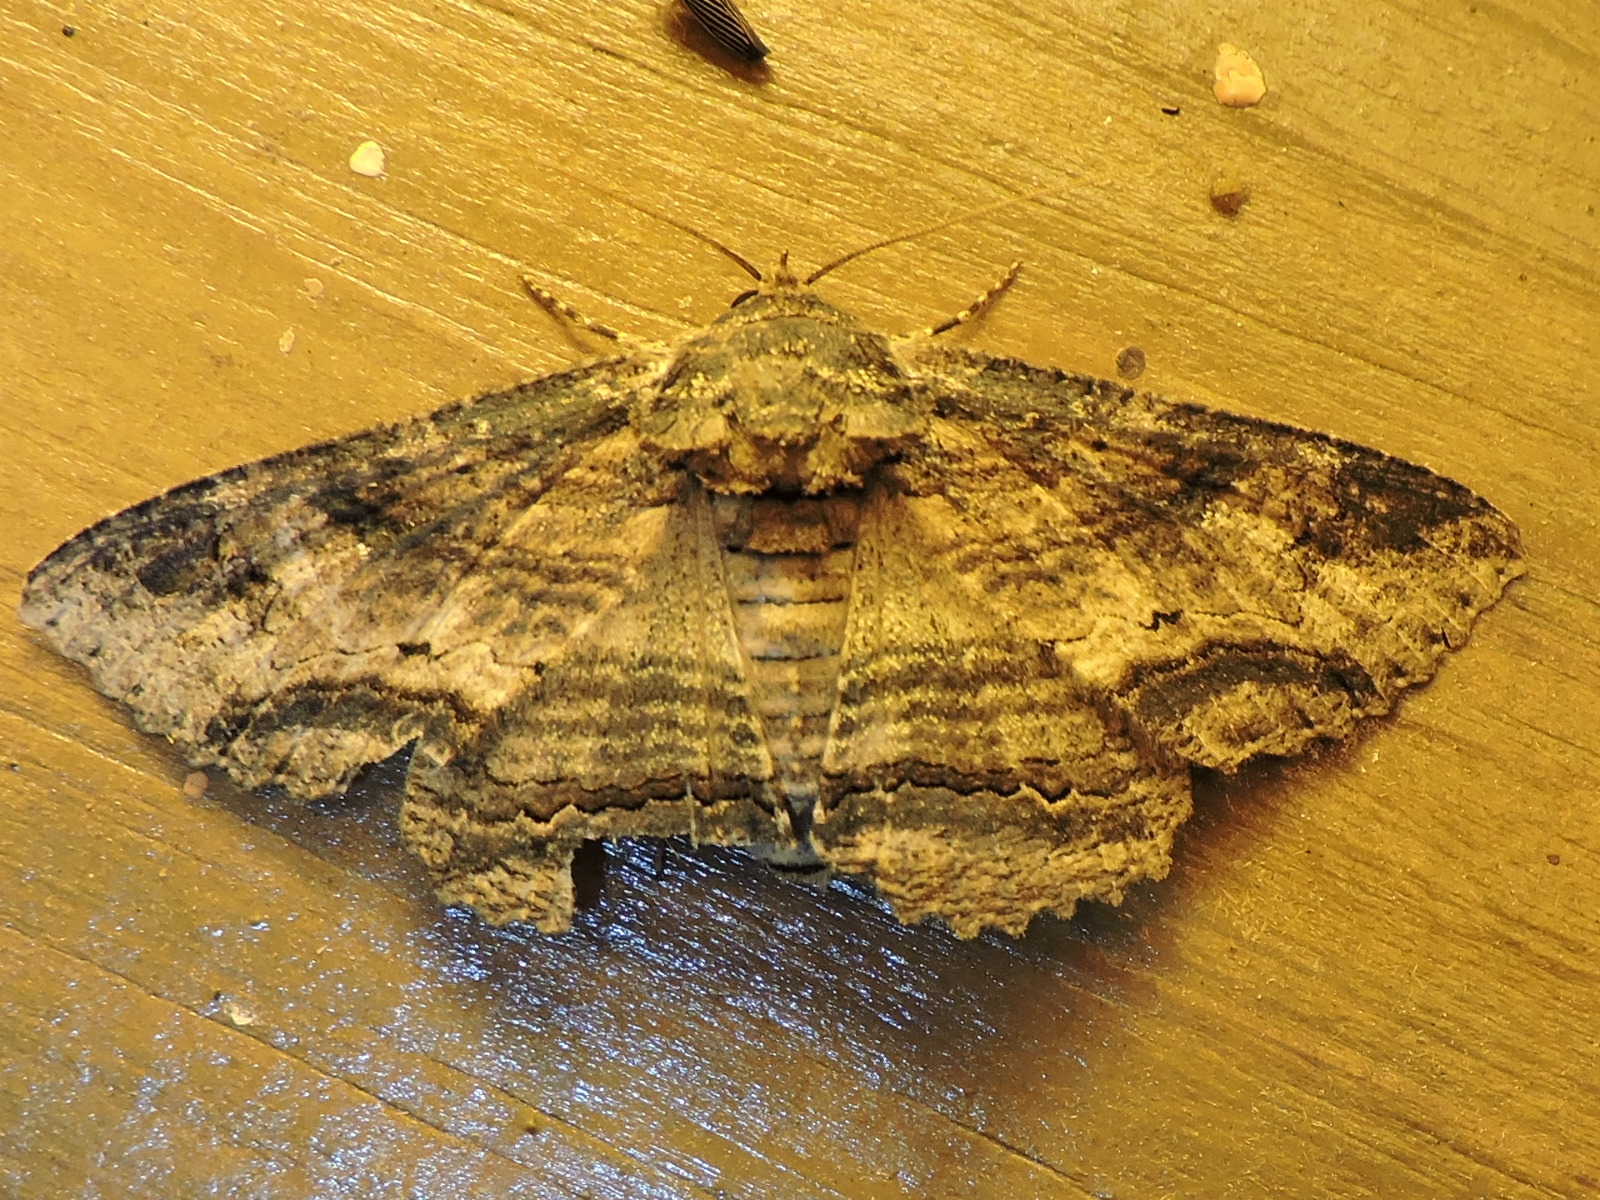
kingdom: Animalia
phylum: Arthropoda
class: Insecta
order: Lepidoptera
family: Erebidae
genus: Zale
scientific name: Zale lunata
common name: Lunate zale moth
